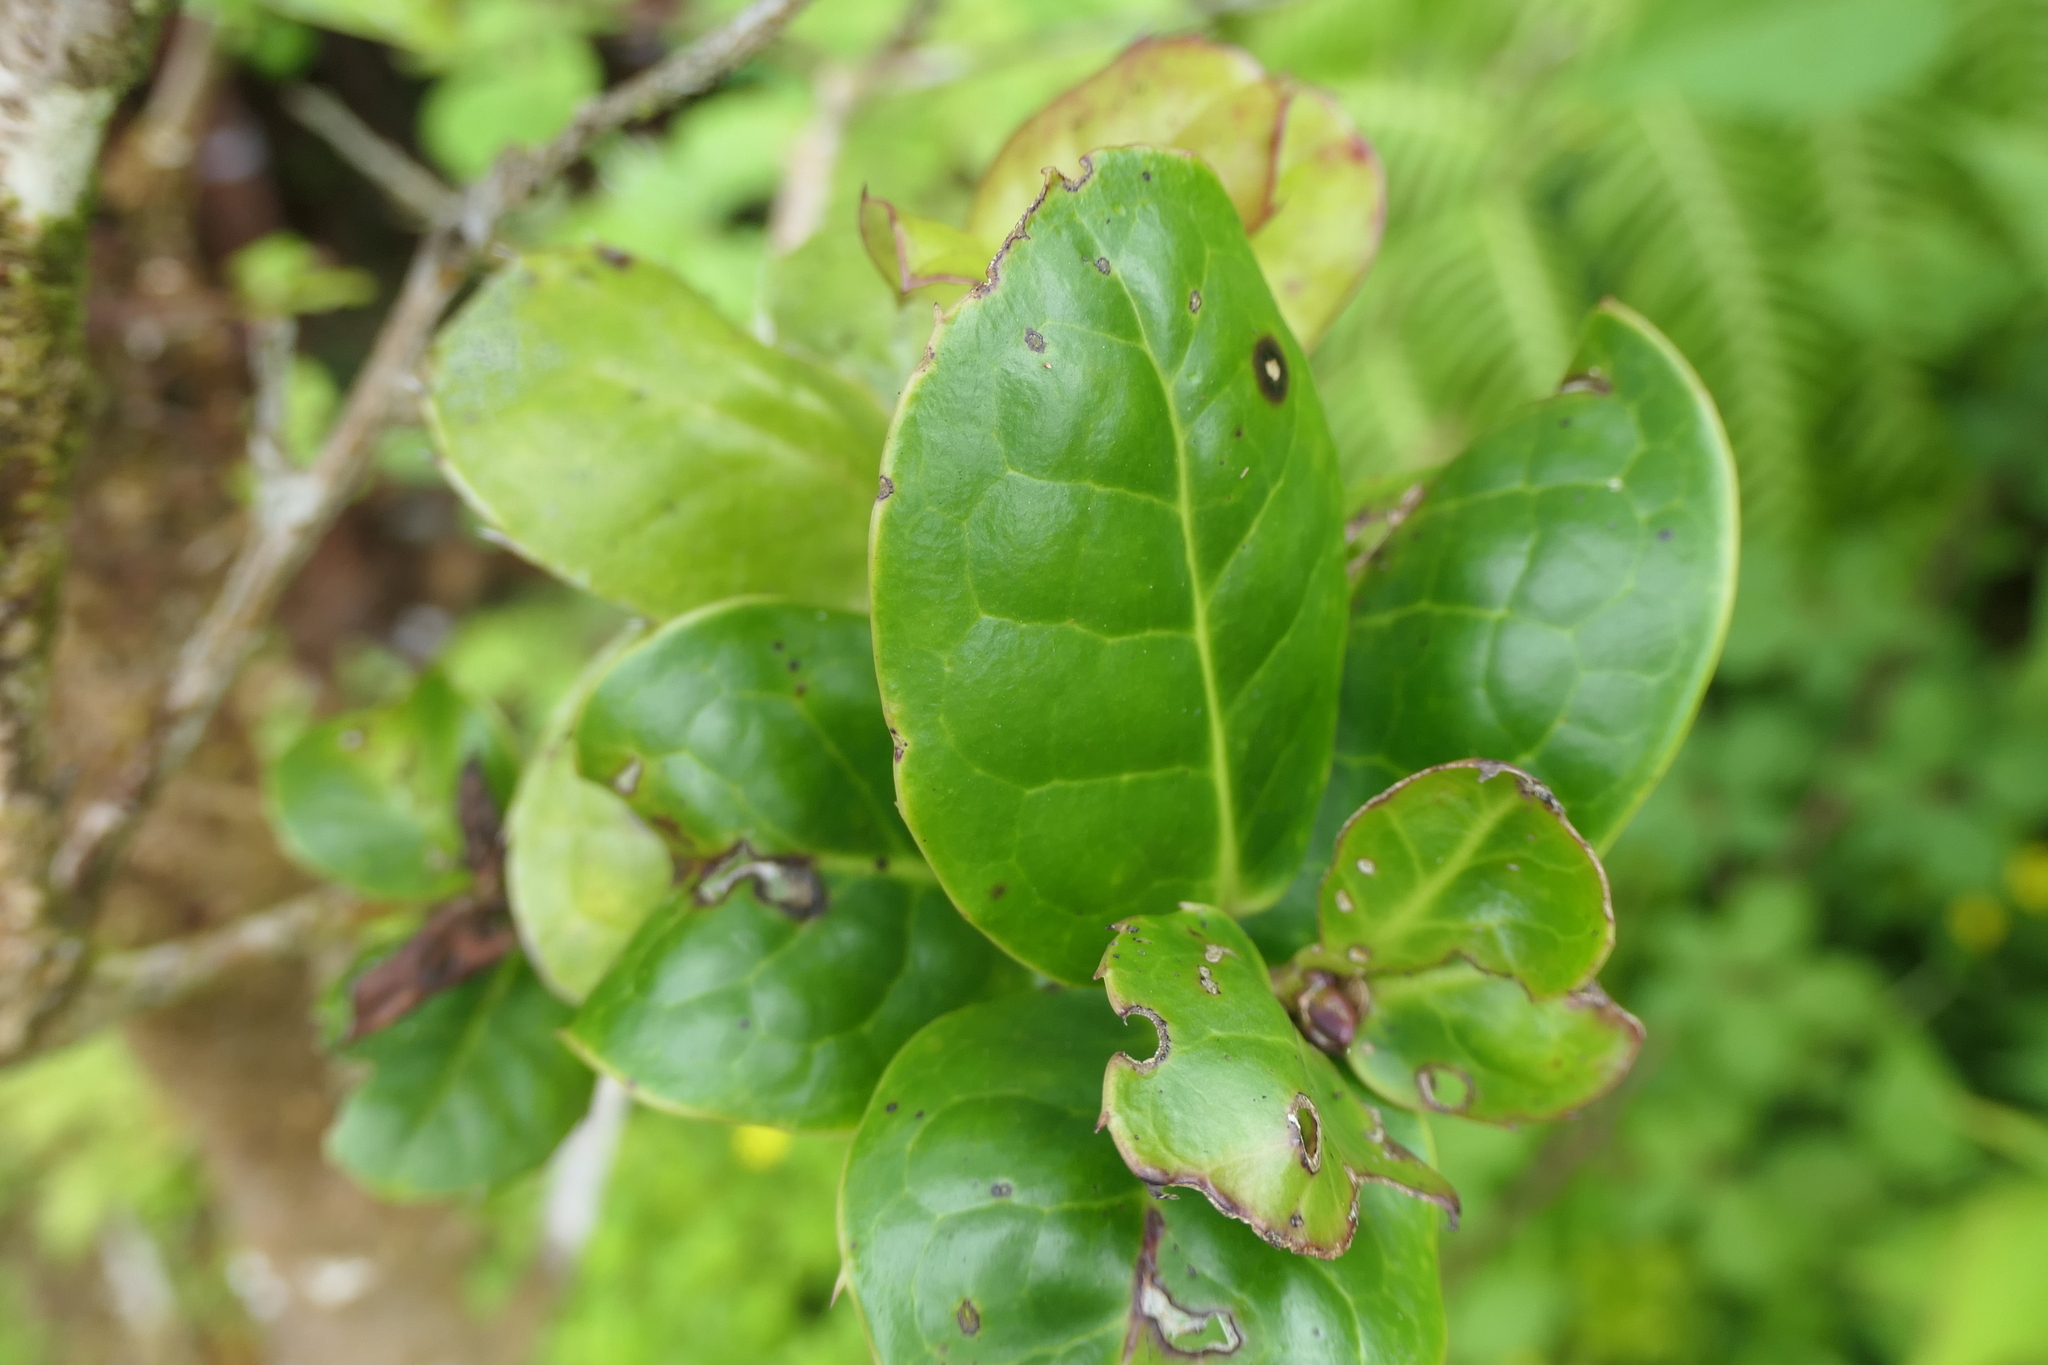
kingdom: Plantae
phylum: Tracheophyta
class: Magnoliopsida
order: Aquifoliales
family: Aquifoliaceae
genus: Ilex
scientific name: Ilex perado
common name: Madeira holly
